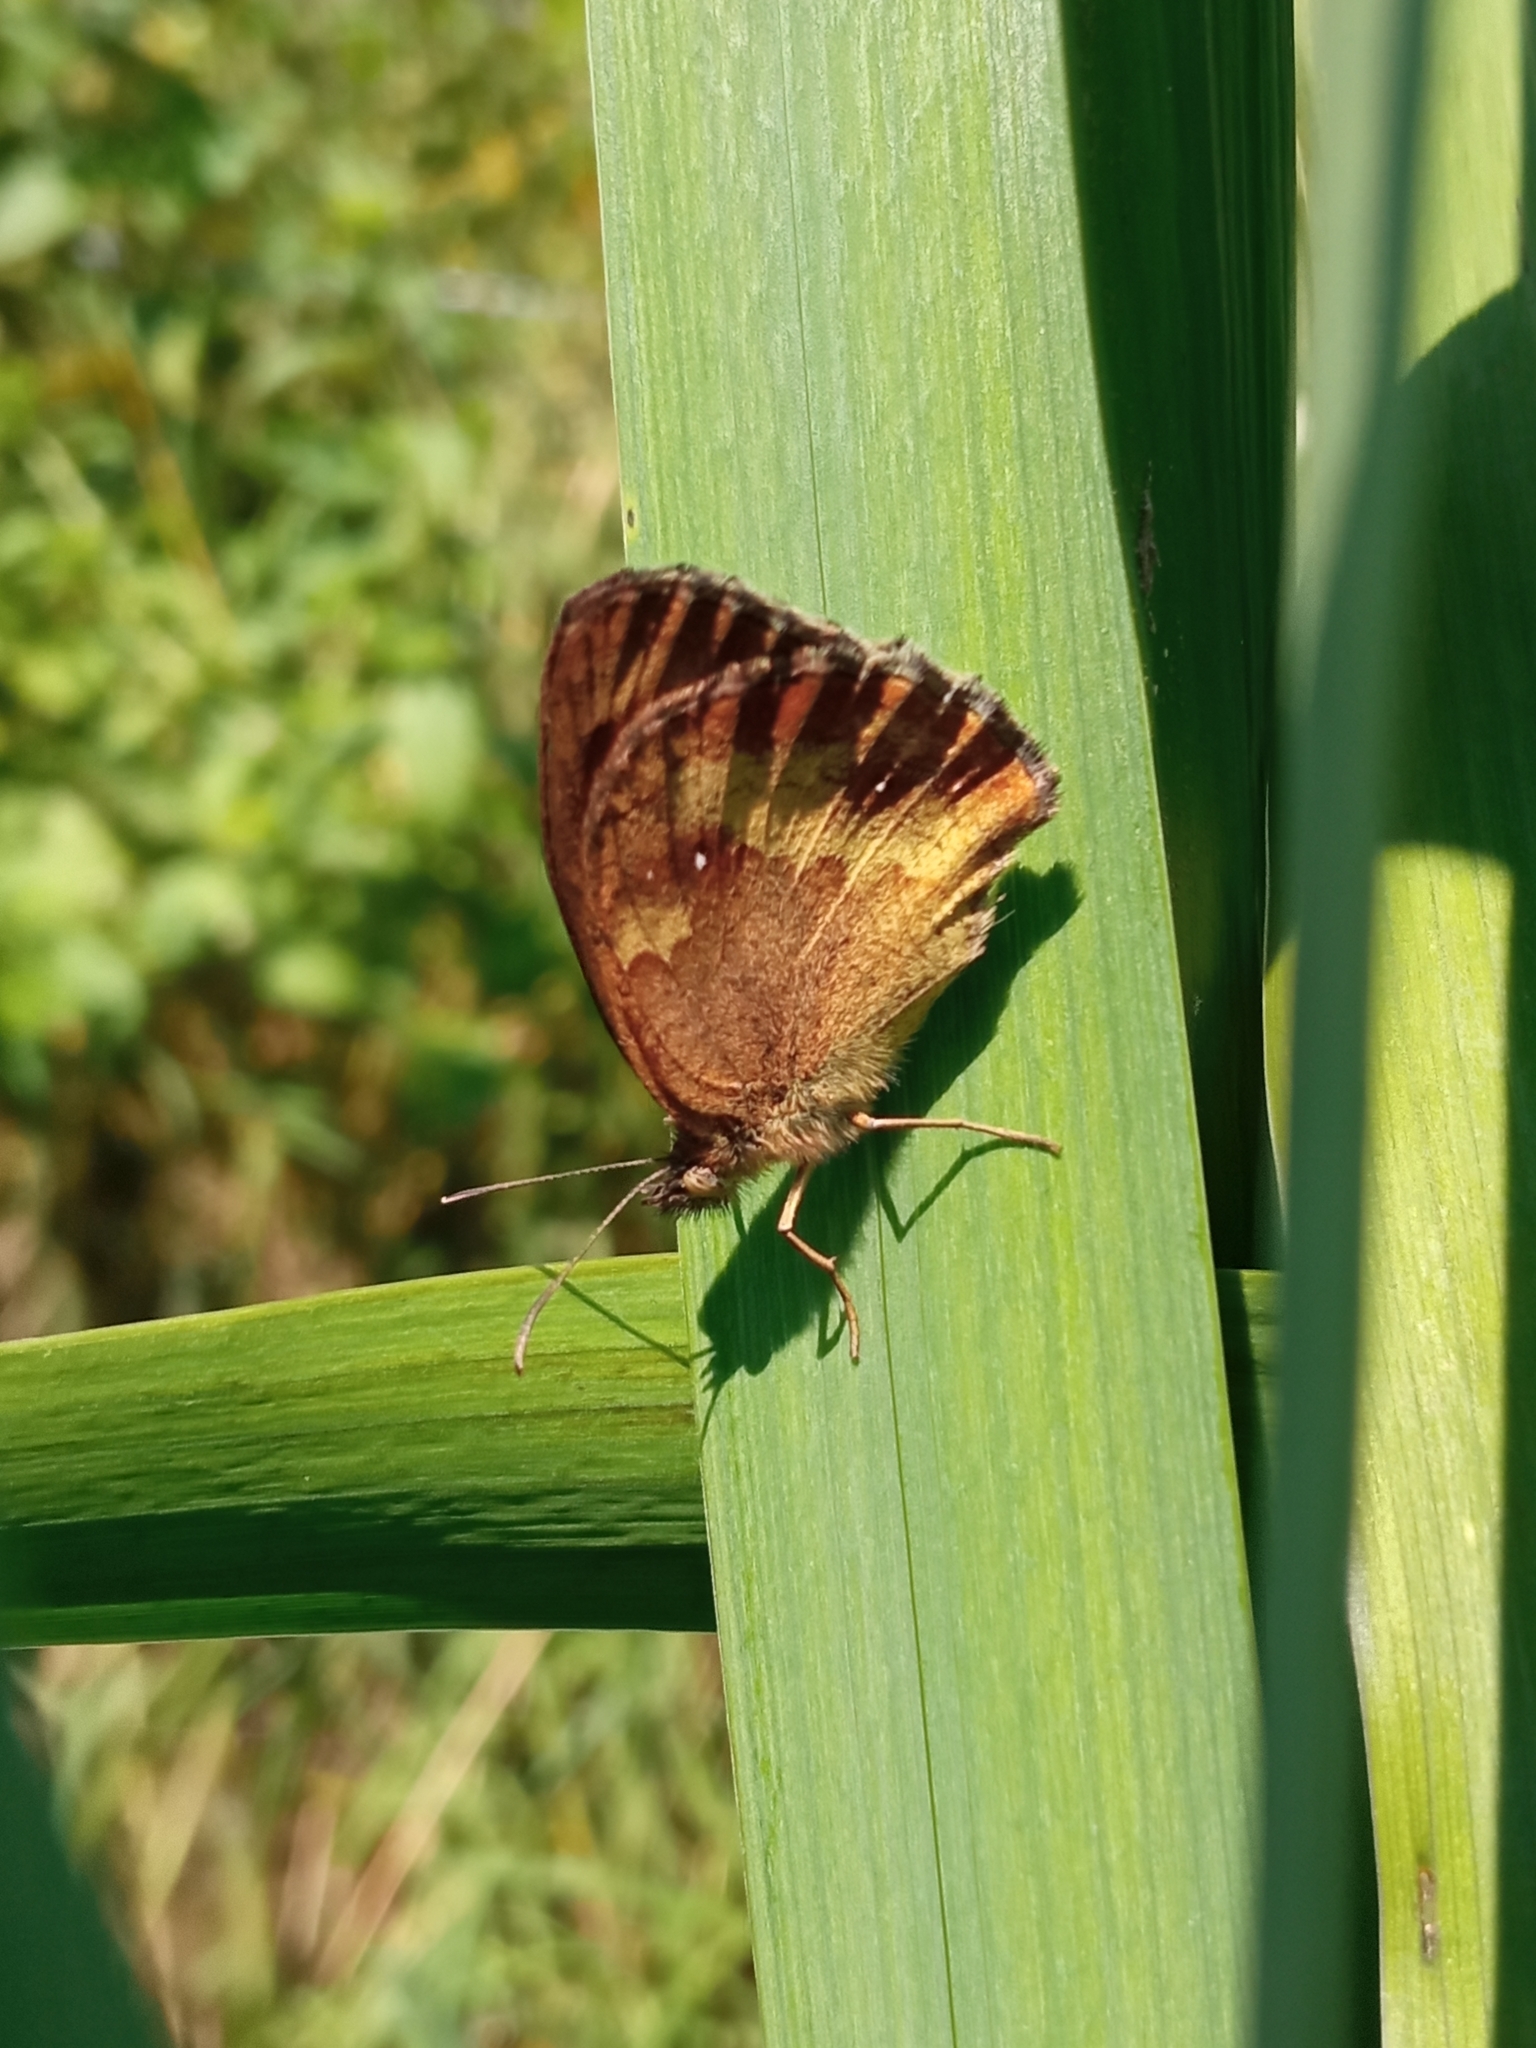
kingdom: Animalia
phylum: Arthropoda
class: Insecta
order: Lepidoptera
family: Nymphalidae
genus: Pyronia
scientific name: Pyronia tithonus
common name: Gatekeeper
